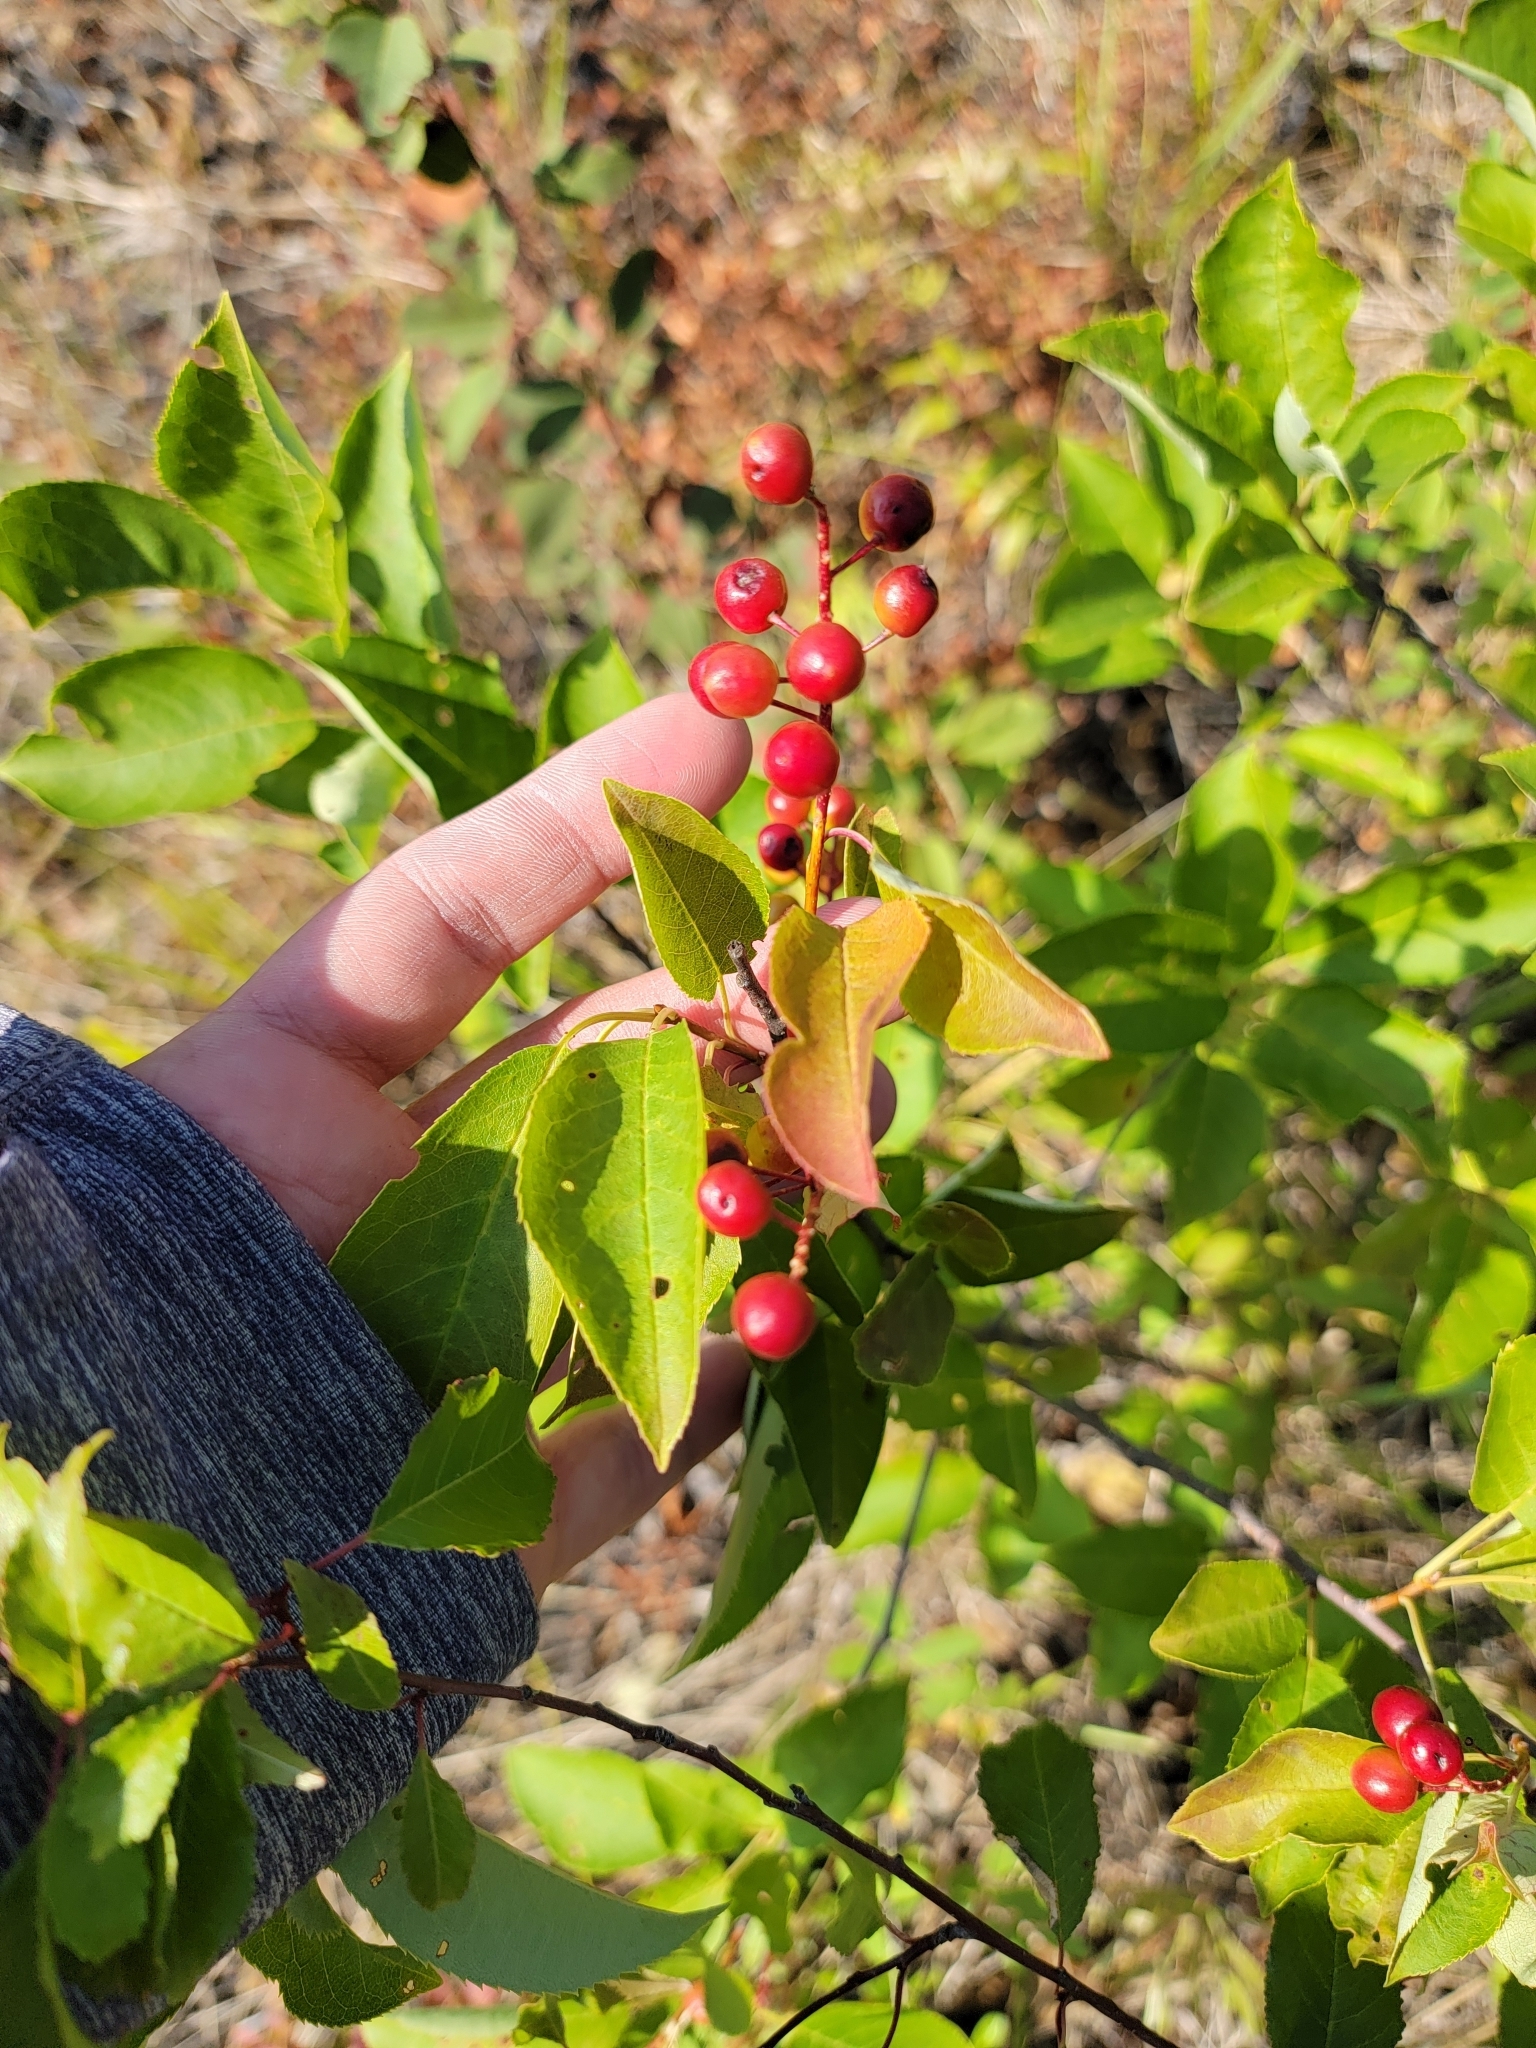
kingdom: Plantae
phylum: Tracheophyta
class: Magnoliopsida
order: Rosales
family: Rosaceae
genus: Prunus
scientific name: Prunus virginiana
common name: Chokecherry
